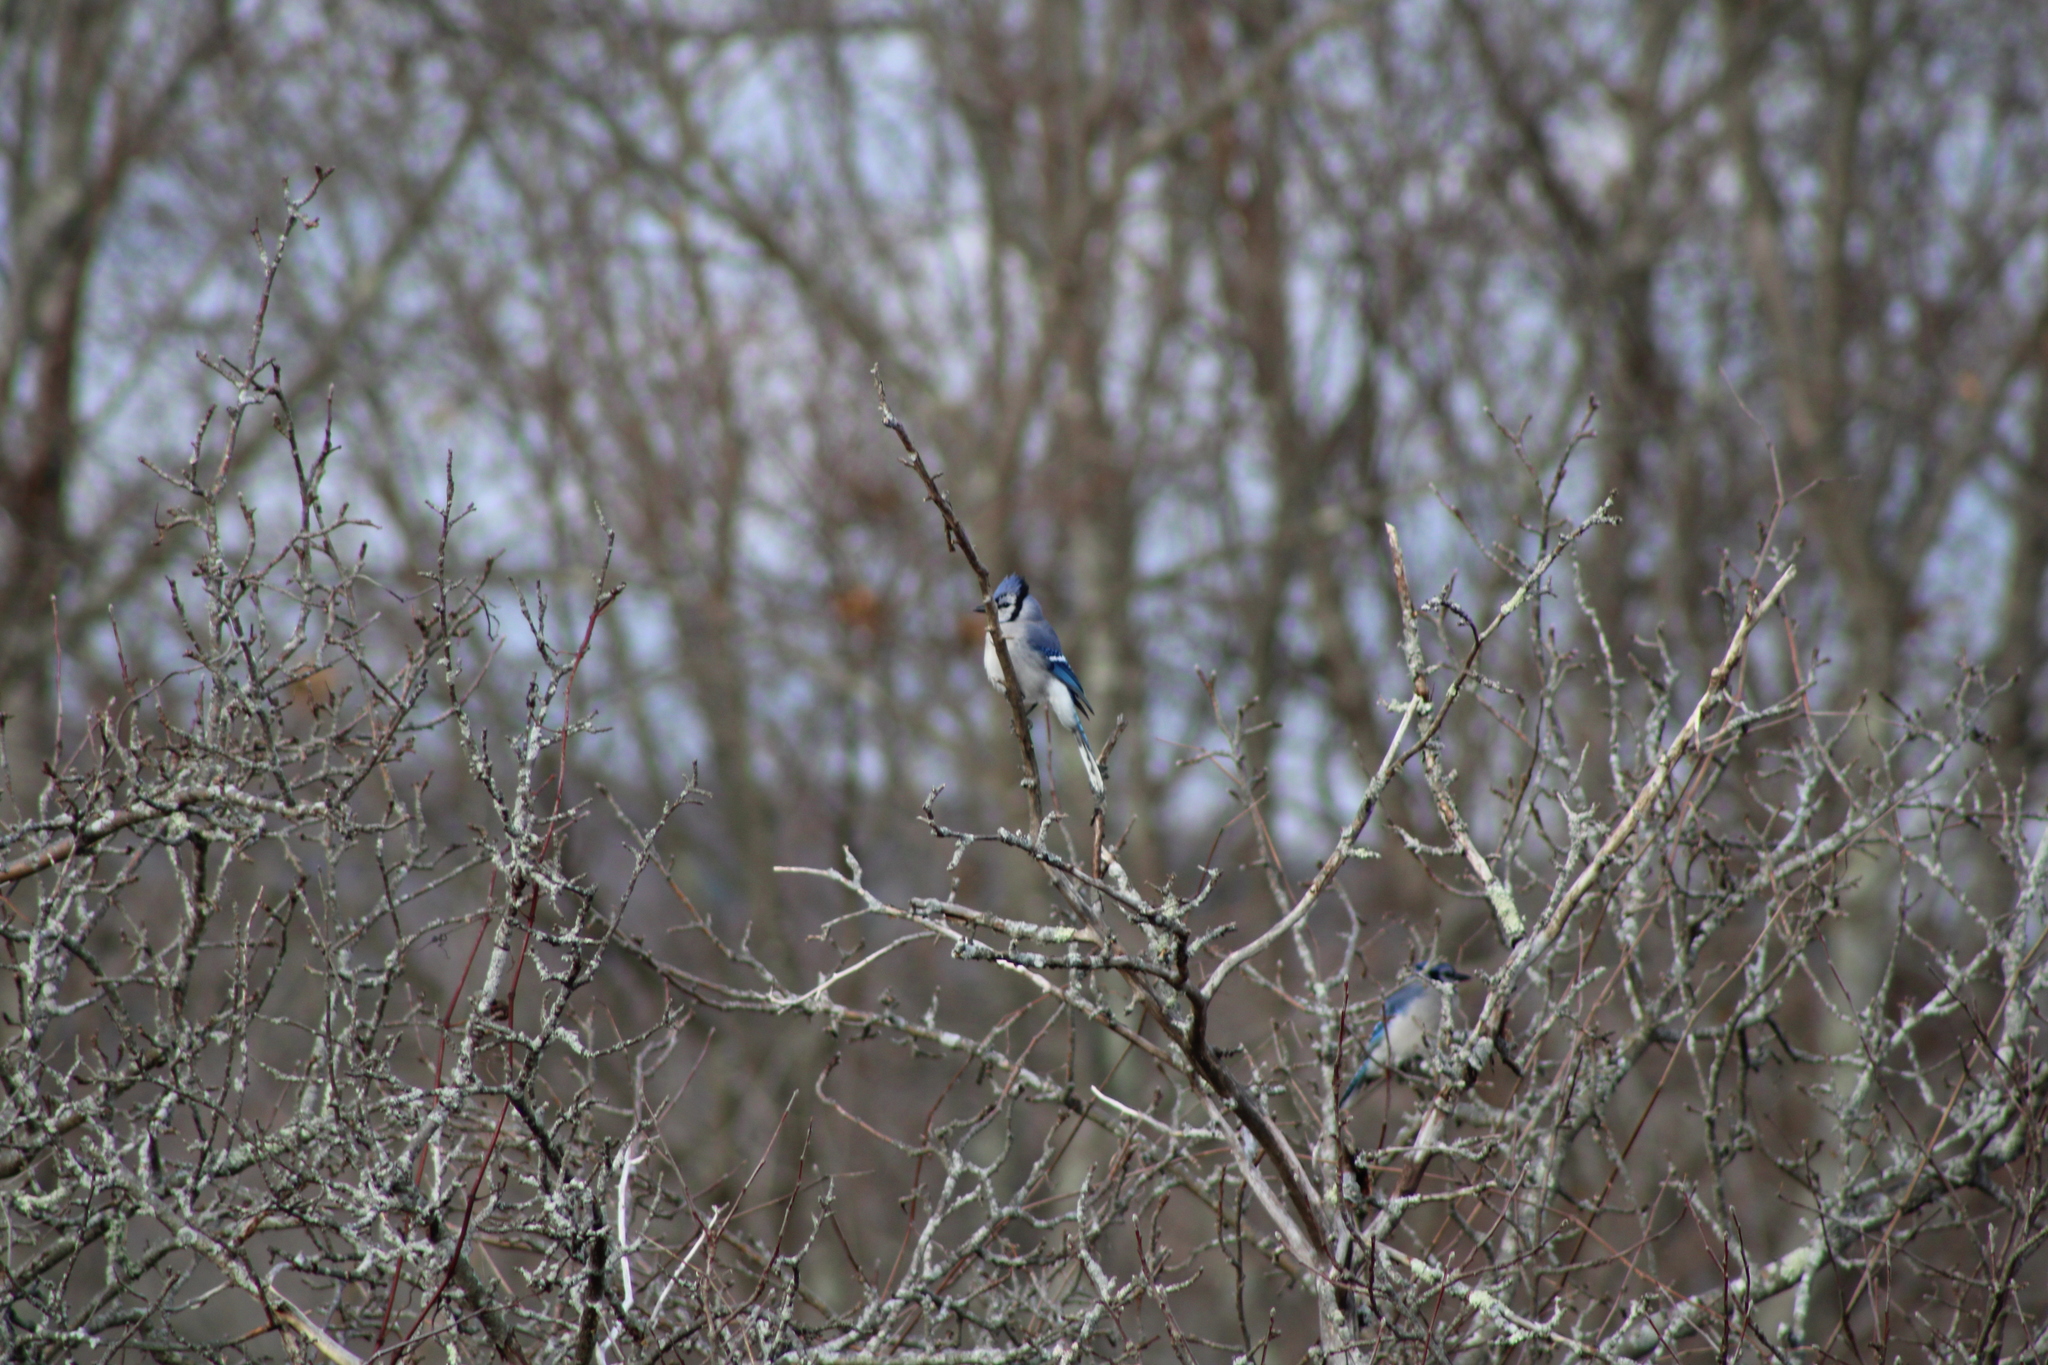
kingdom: Animalia
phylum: Chordata
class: Aves
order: Passeriformes
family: Corvidae
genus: Cyanocitta
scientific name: Cyanocitta cristata
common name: Blue jay
